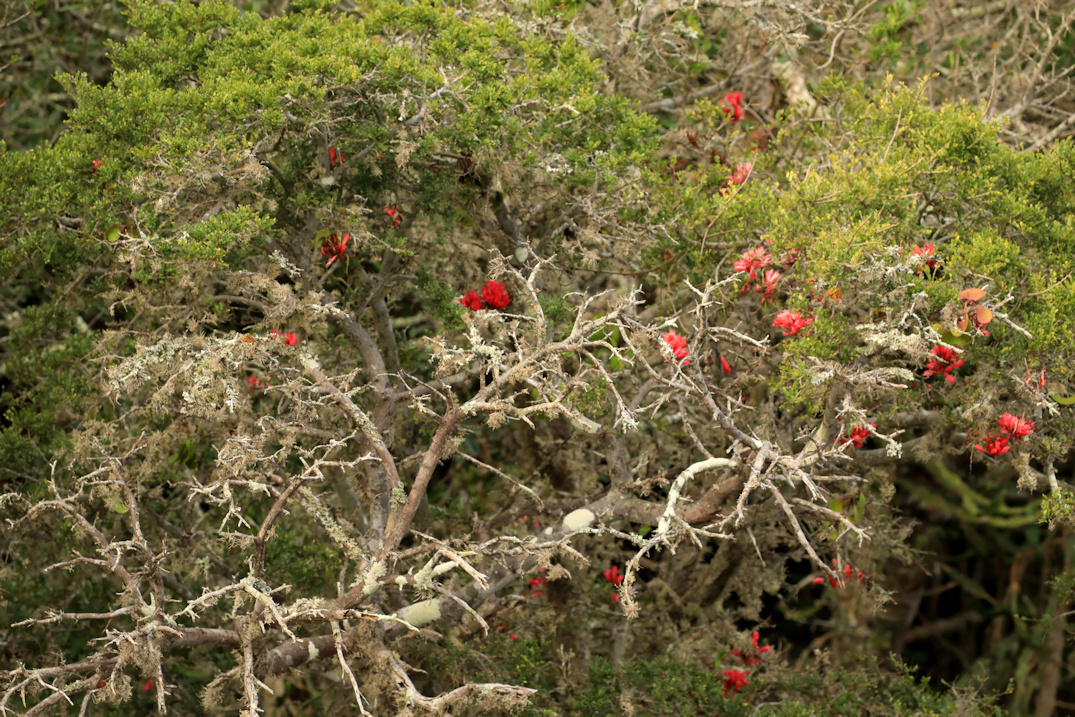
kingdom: Plantae
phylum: Tracheophyta
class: Magnoliopsida
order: Fabales
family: Fabaceae
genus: Schotia
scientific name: Schotia afra
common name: Hottentot's bean
